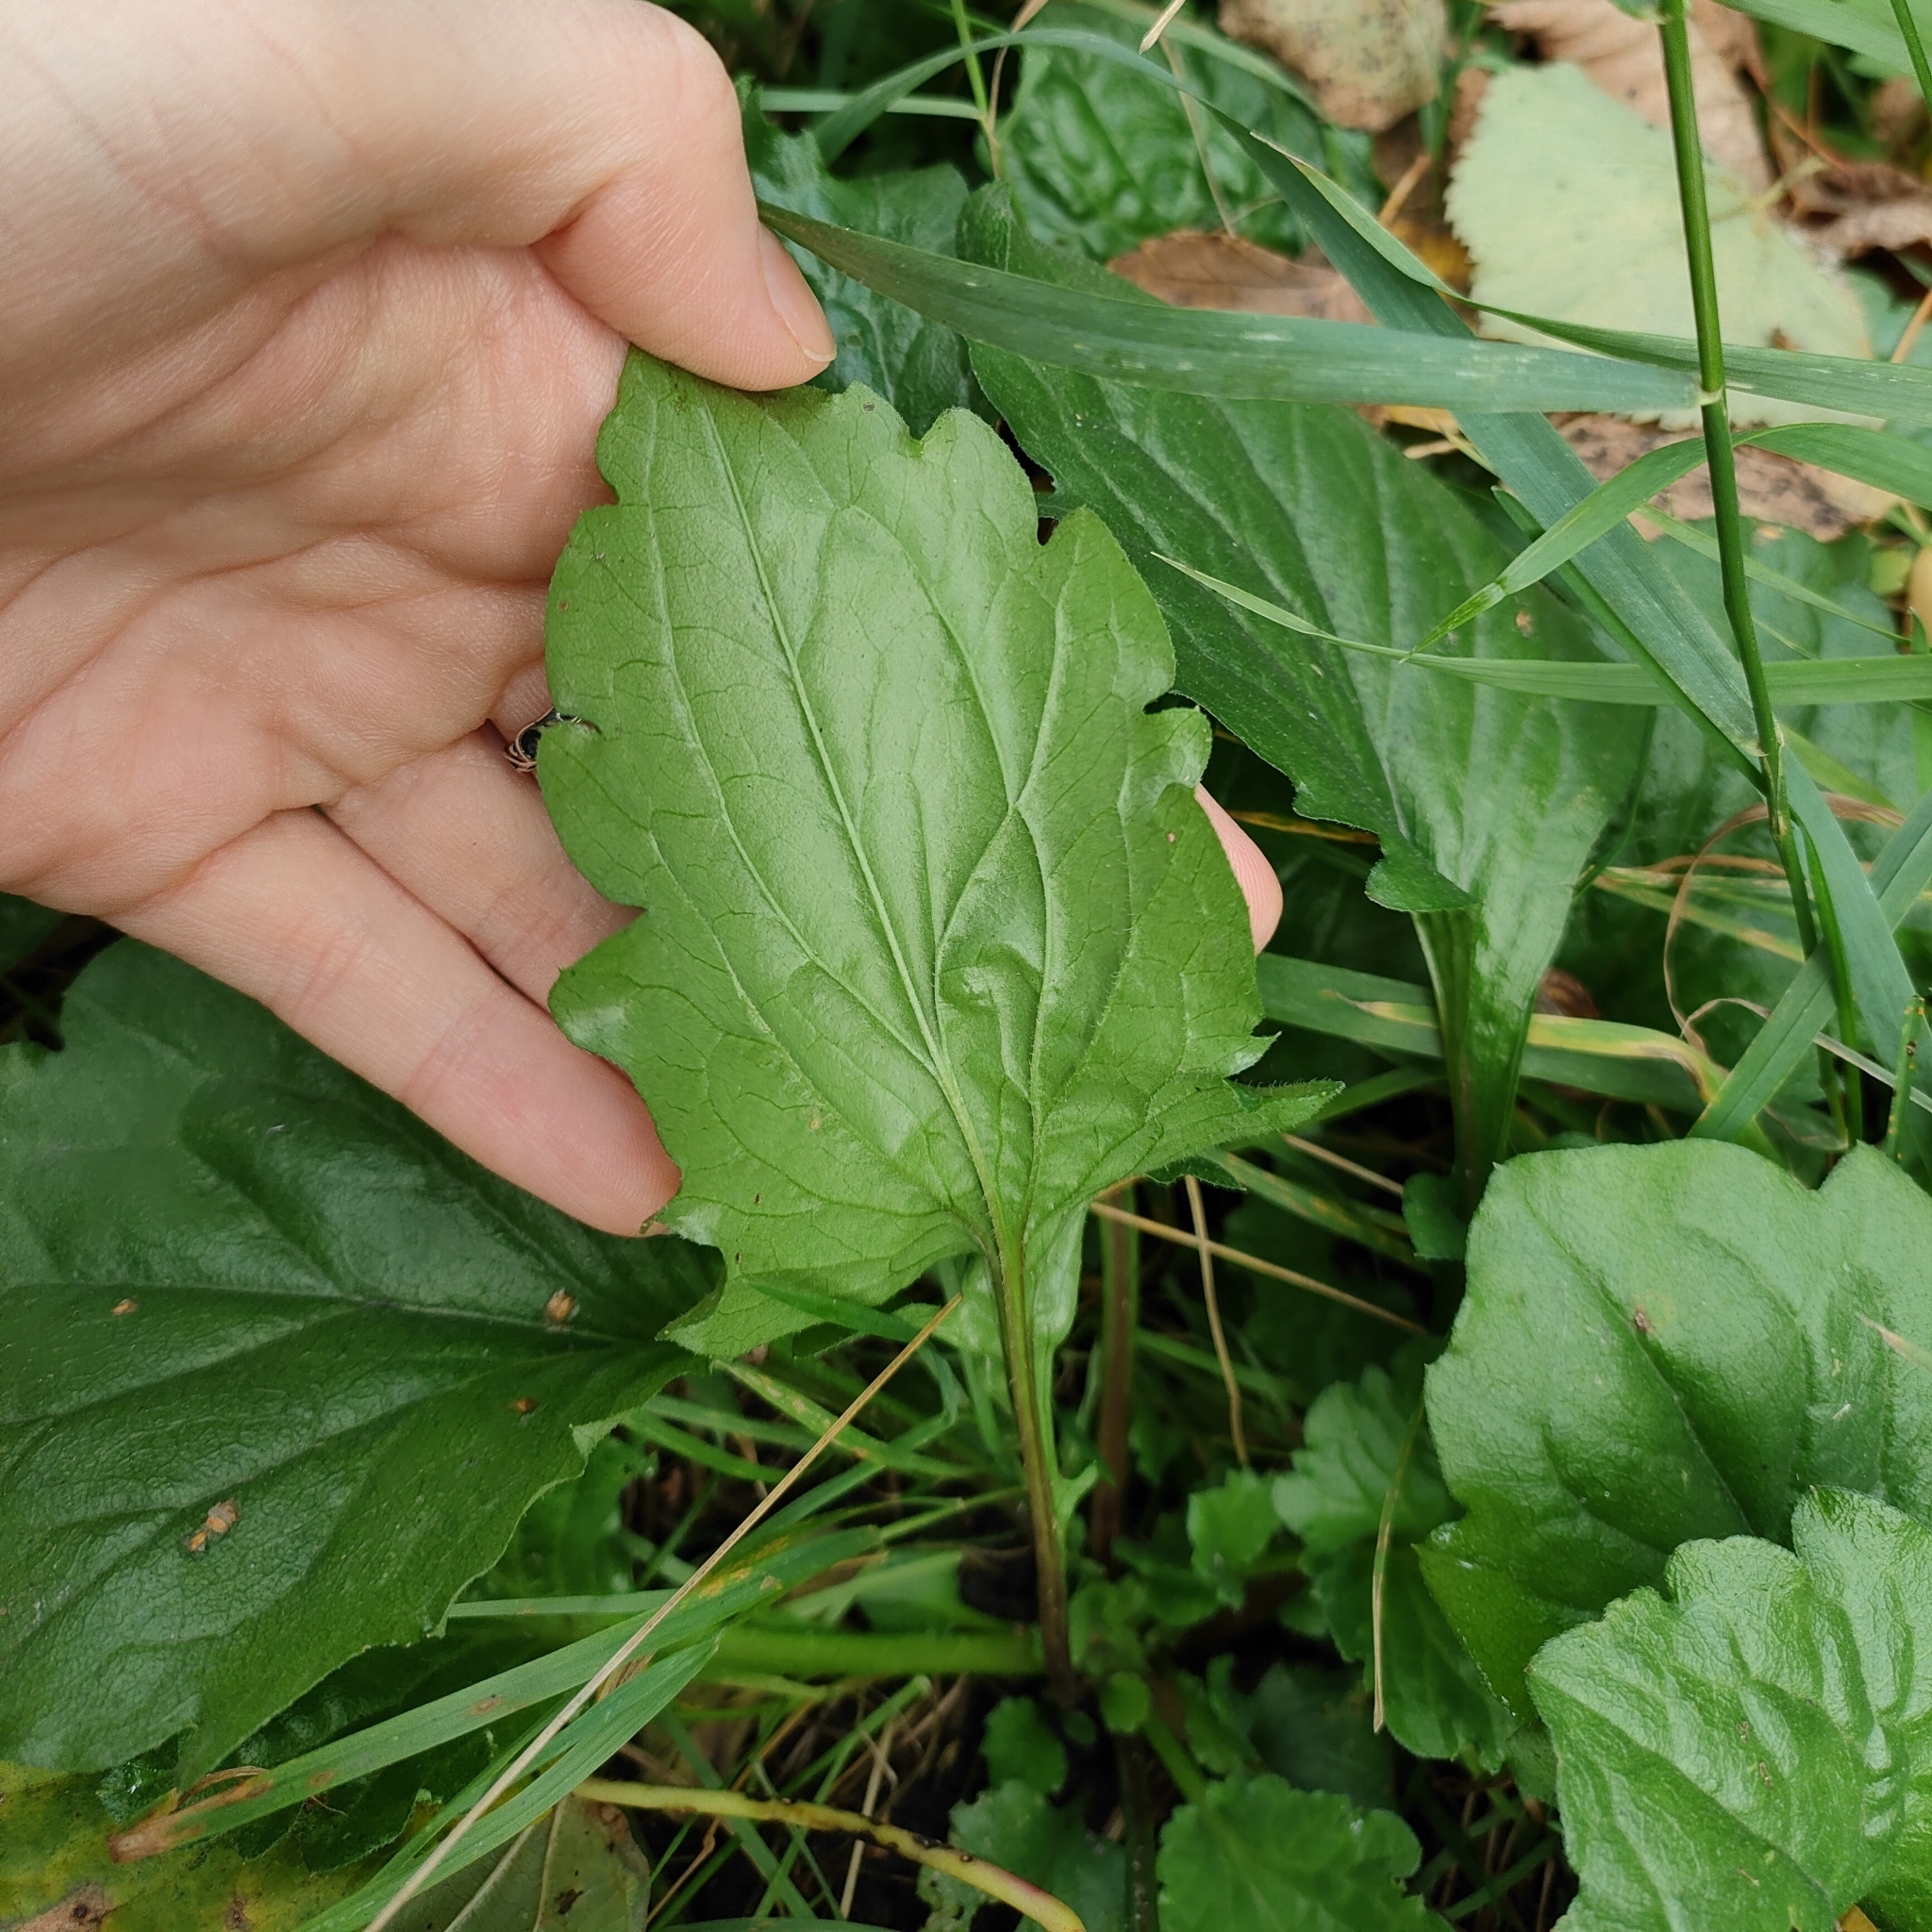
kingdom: Plantae
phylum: Tracheophyta
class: Magnoliopsida
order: Asterales
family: Asteraceae
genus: Erigeron
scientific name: Erigeron
